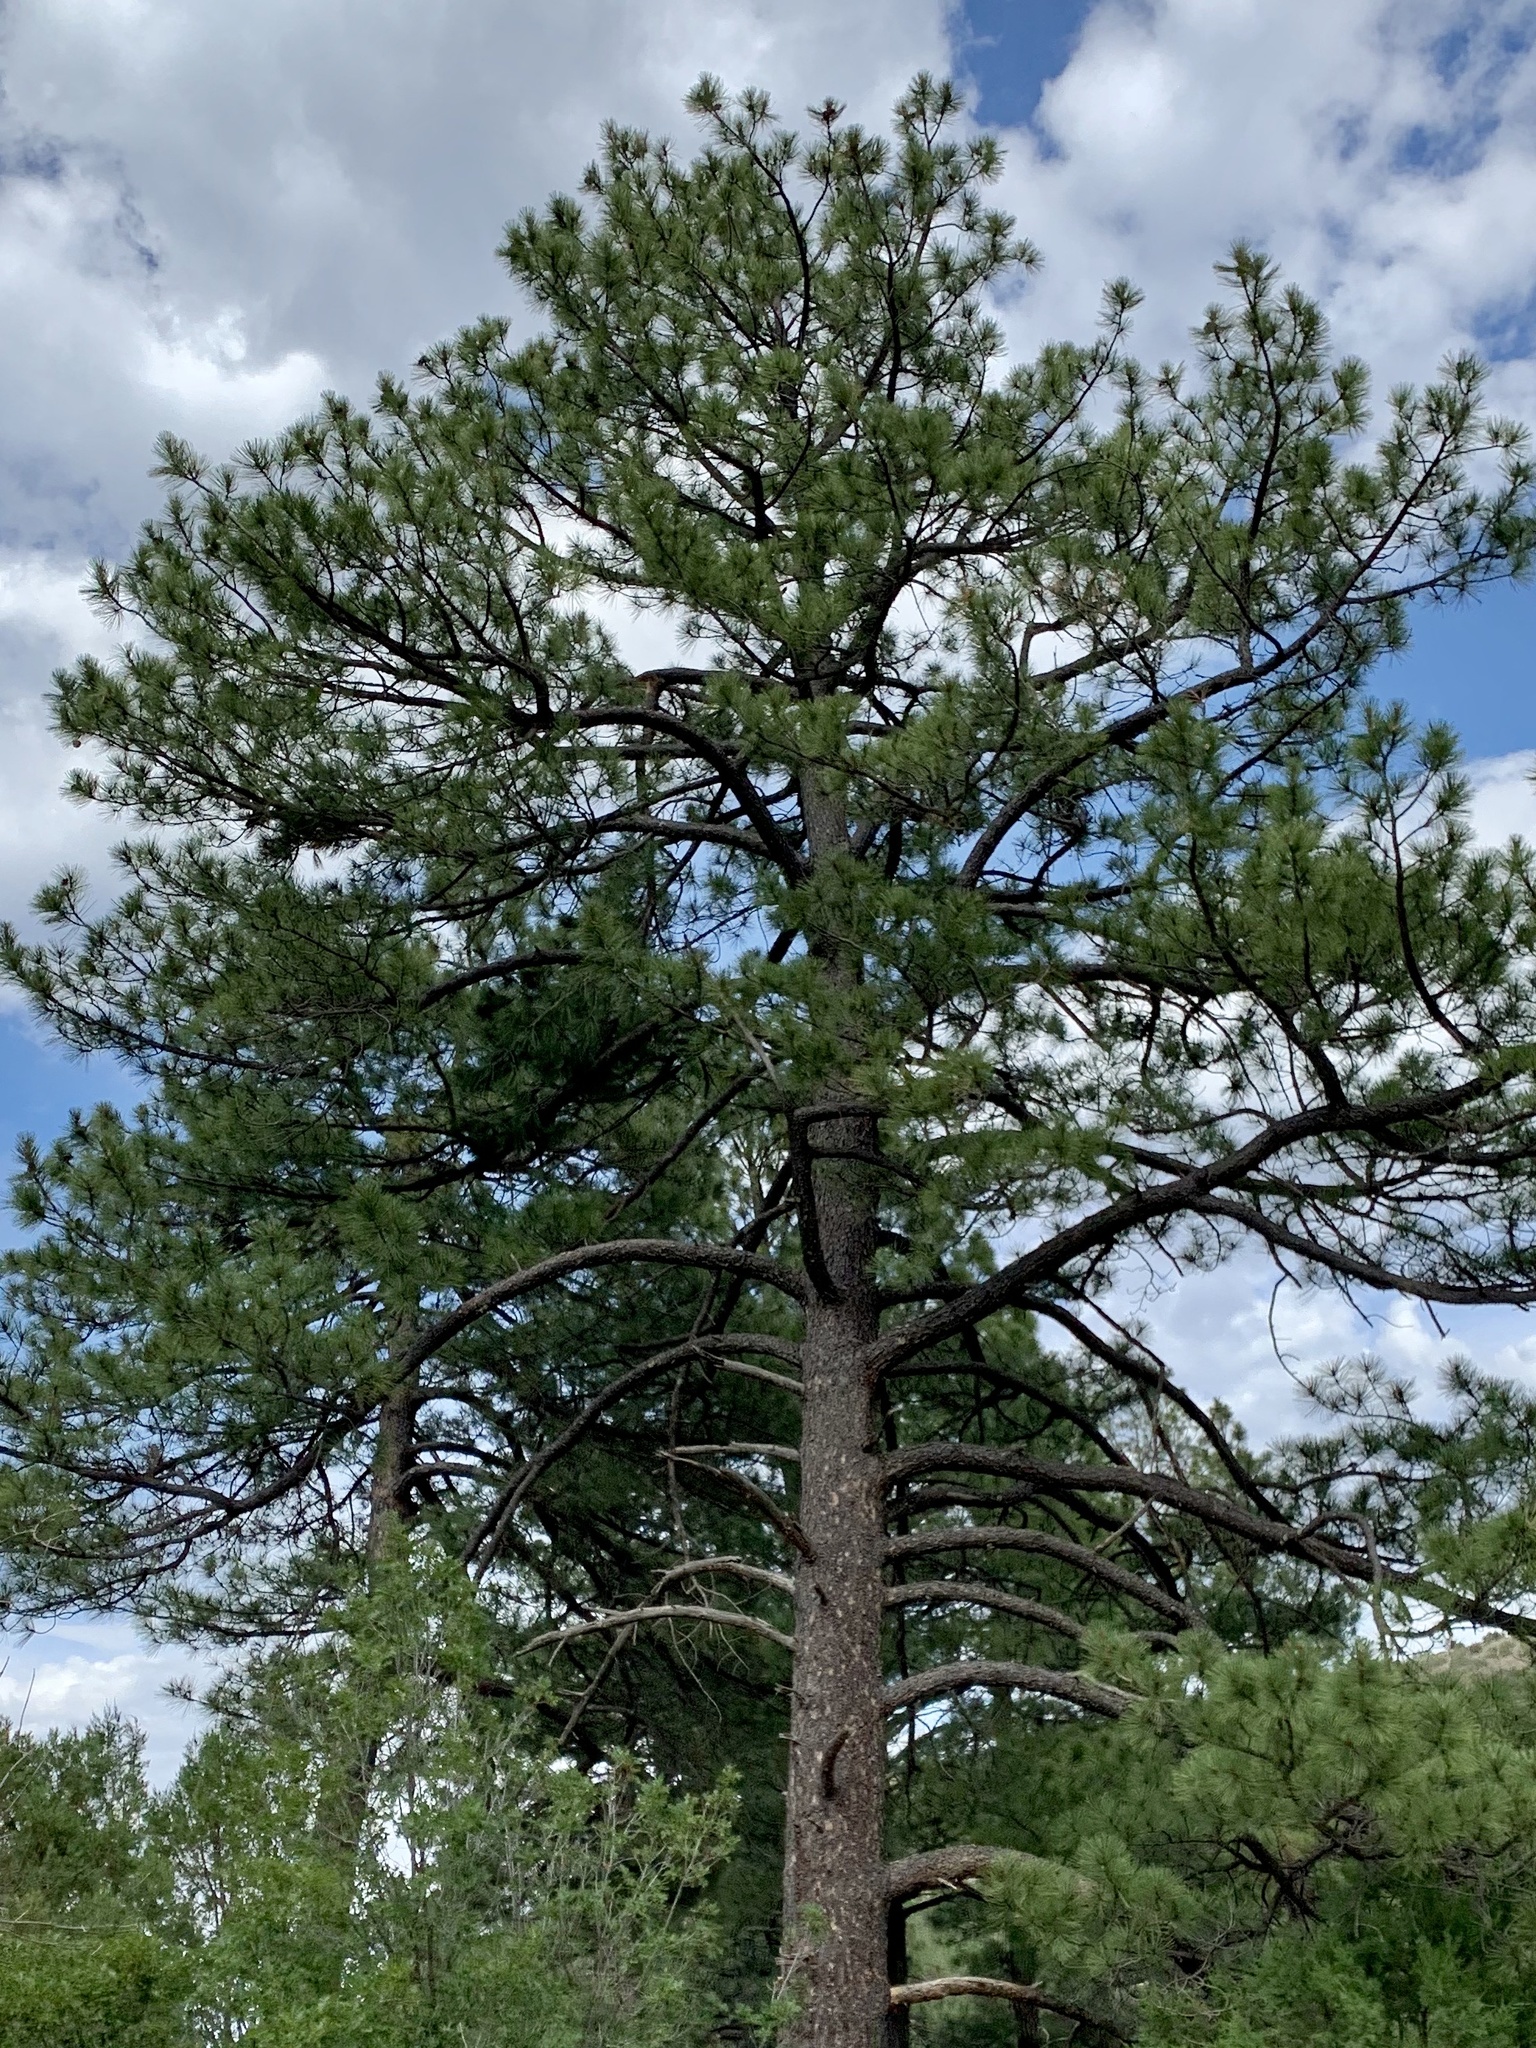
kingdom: Plantae
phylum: Tracheophyta
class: Pinopsida
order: Pinales
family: Pinaceae
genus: Pinus
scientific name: Pinus ponderosa
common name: Western yellow-pine
